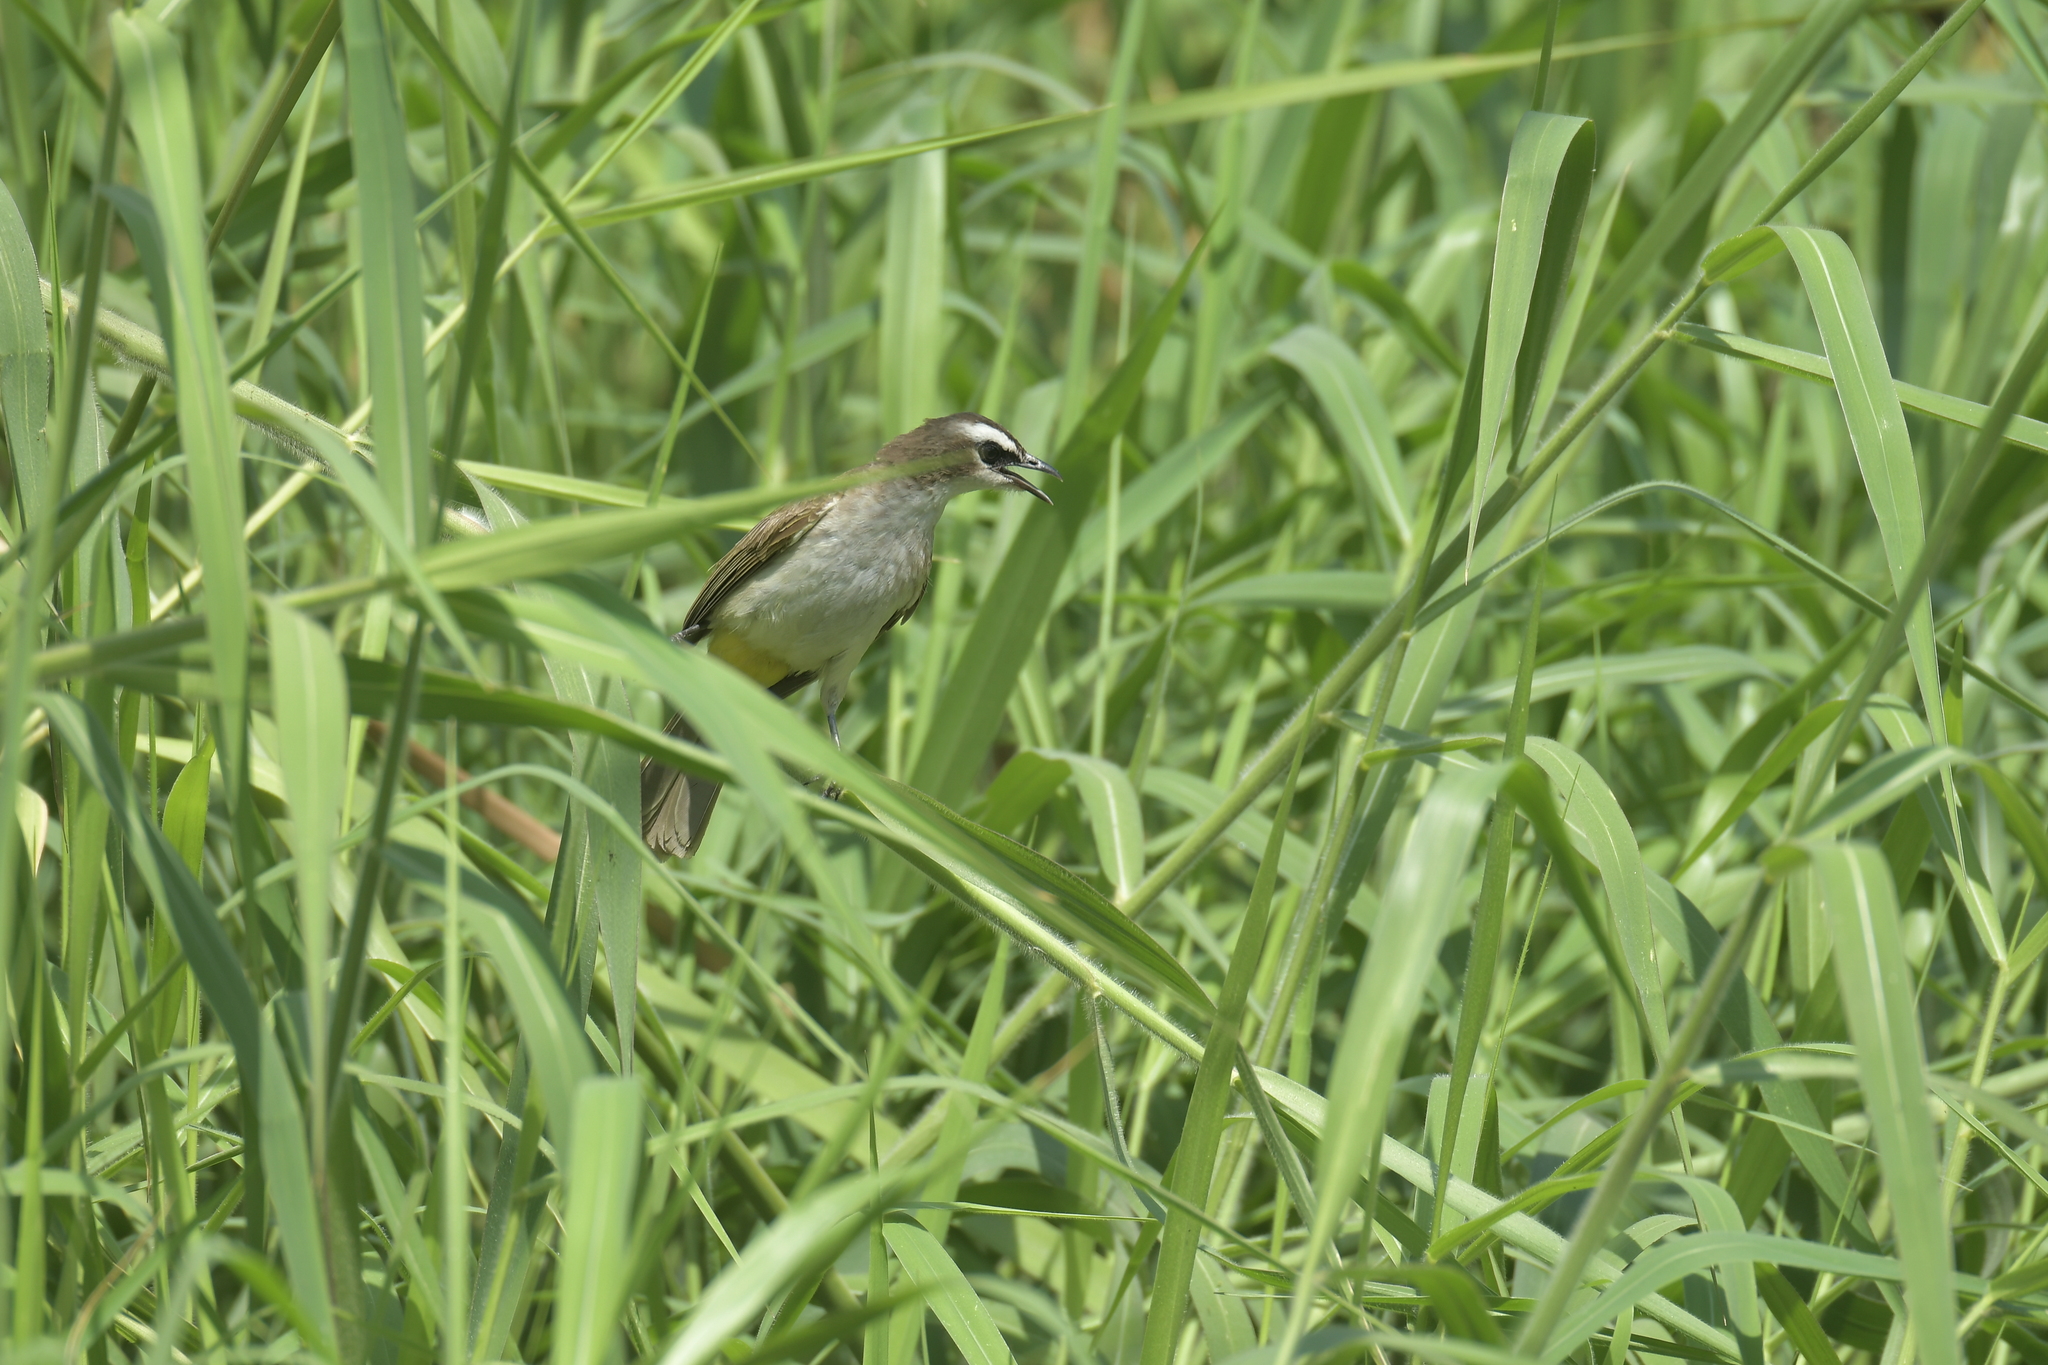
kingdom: Animalia
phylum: Chordata
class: Aves
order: Passeriformes
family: Pycnonotidae
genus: Pycnonotus
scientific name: Pycnonotus goiavier
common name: Yellow-vented bulbul
